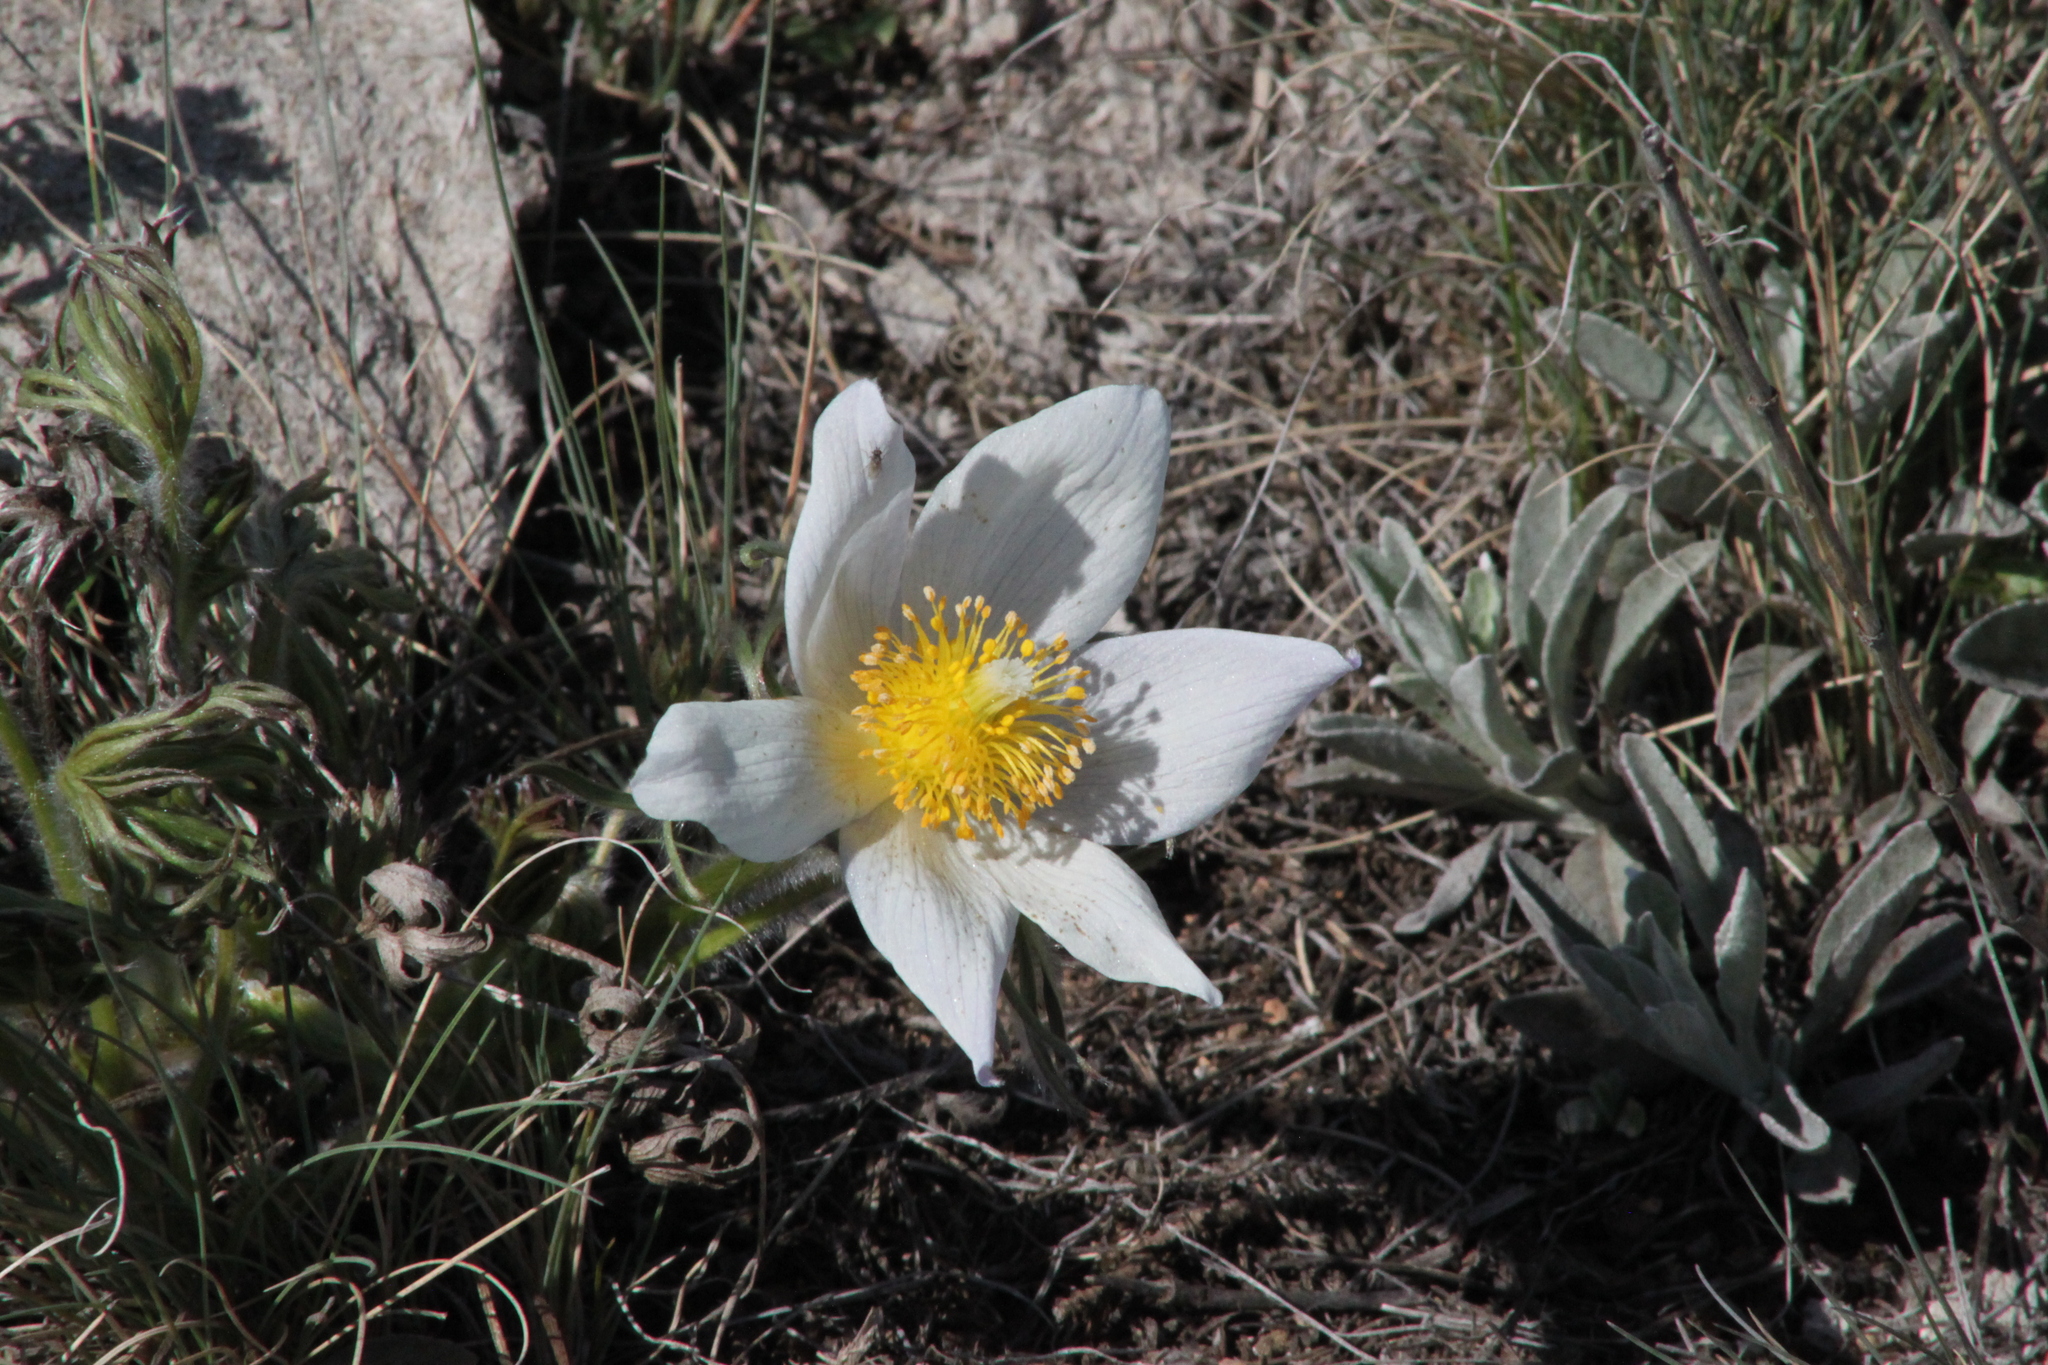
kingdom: Plantae
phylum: Tracheophyta
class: Magnoliopsida
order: Ranunculales
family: Ranunculaceae
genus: Pulsatilla
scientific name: Pulsatilla patens
